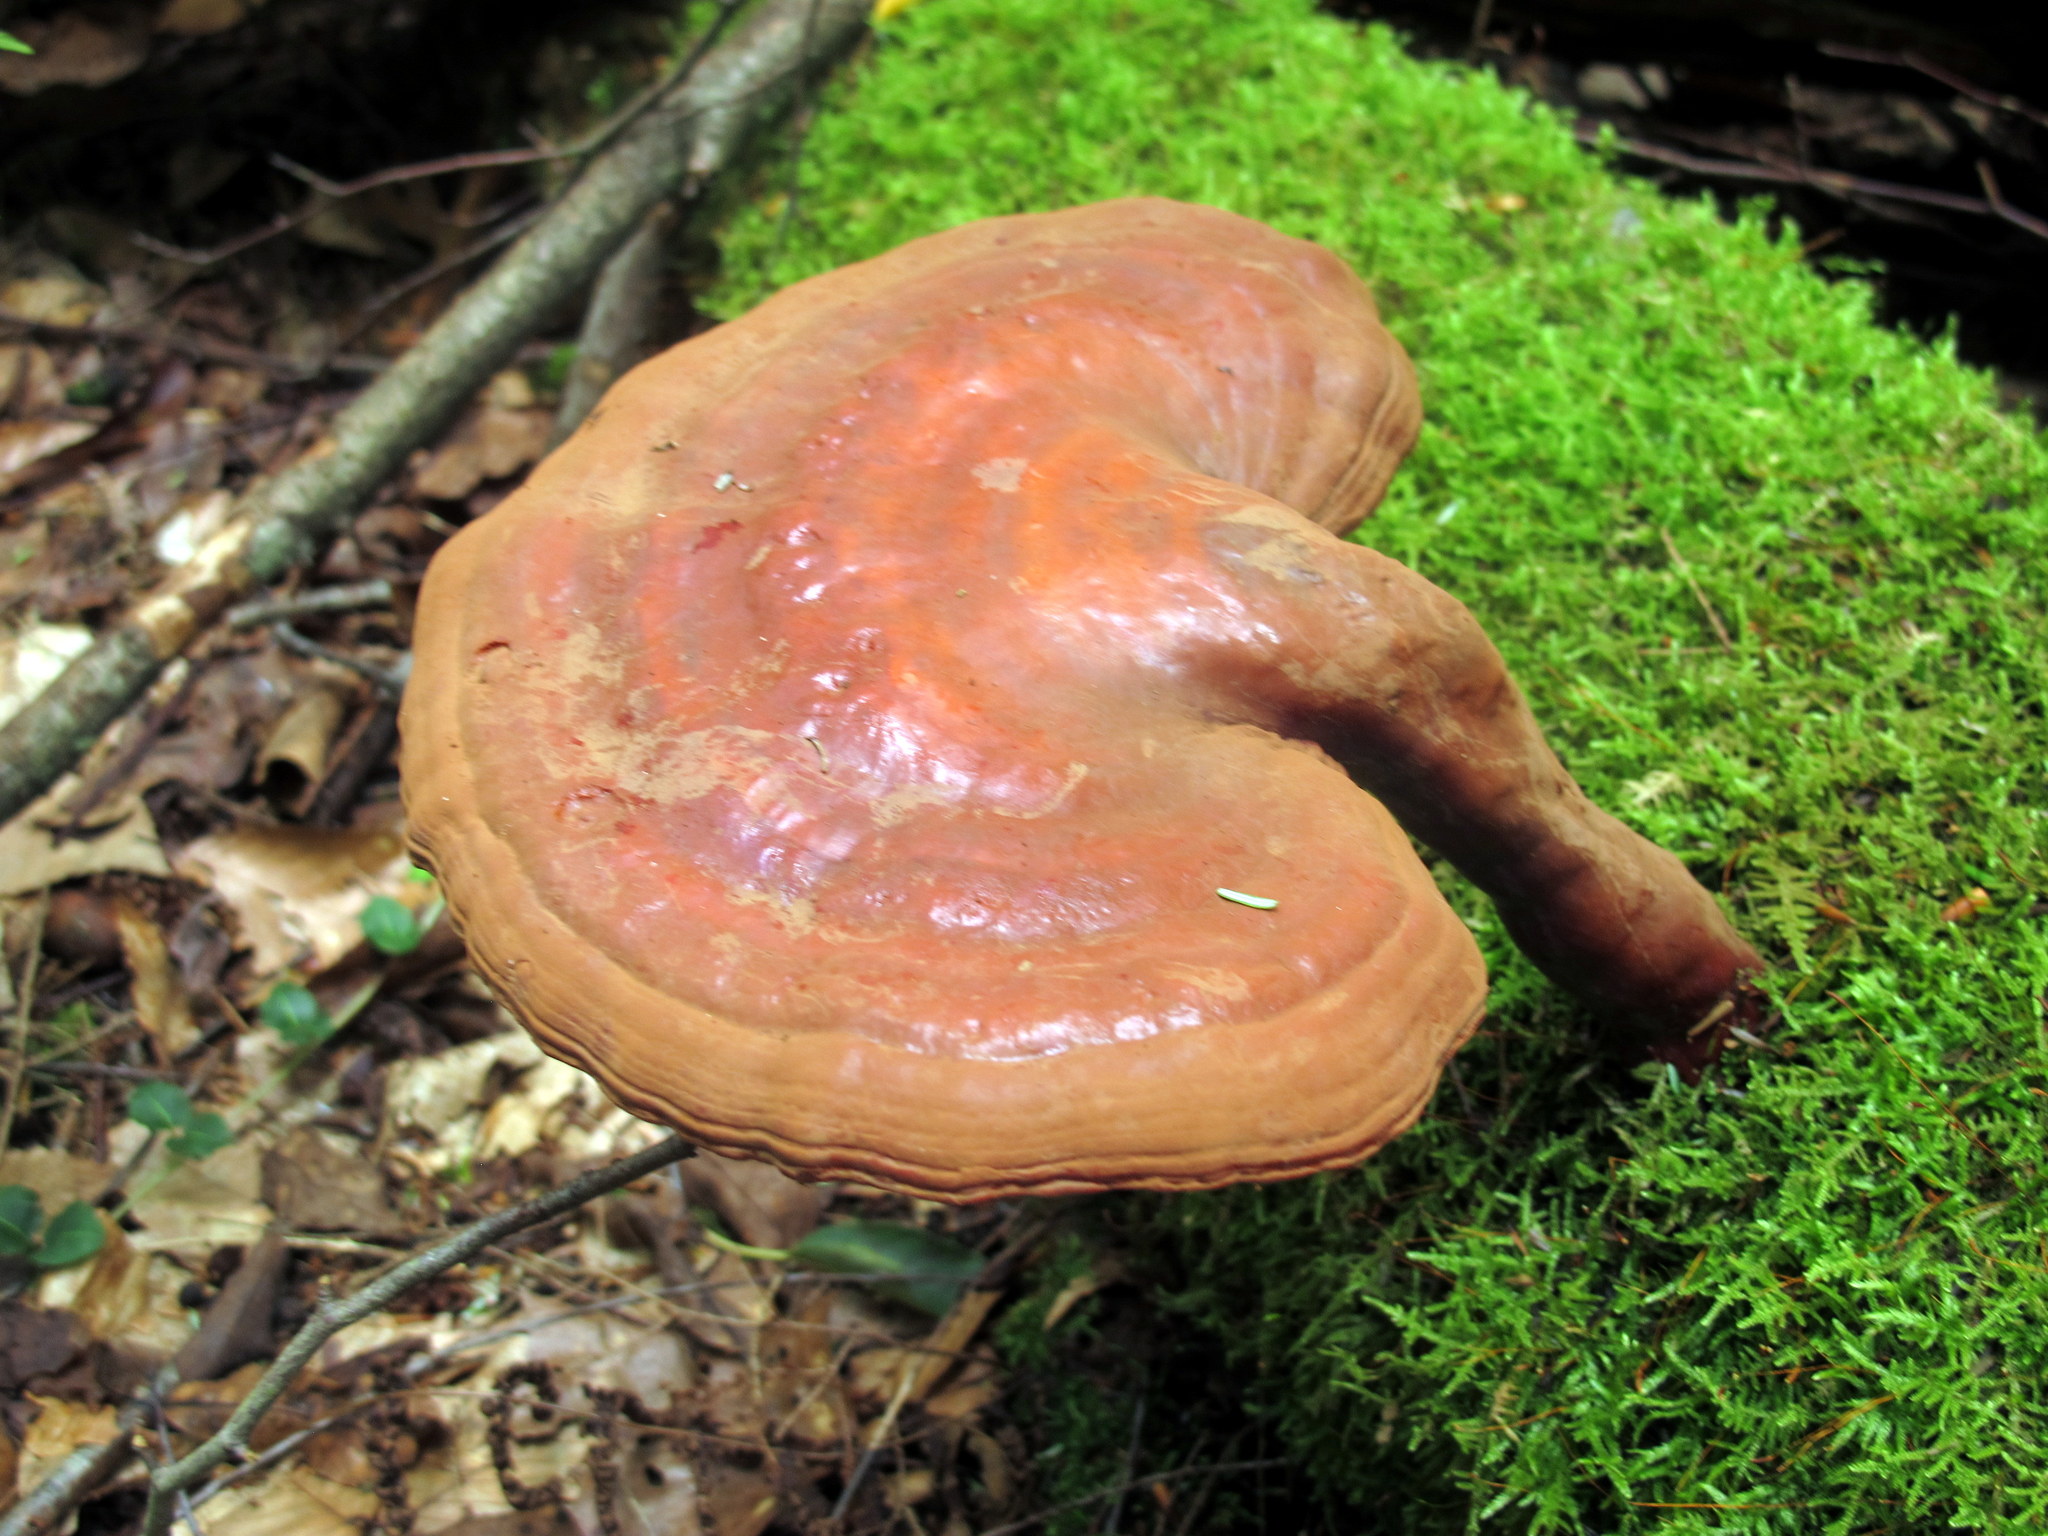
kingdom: Fungi
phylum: Basidiomycota
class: Agaricomycetes
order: Polyporales
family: Polyporaceae
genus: Ganoderma
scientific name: Ganoderma tsugae
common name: Hemlock varnish shelf
